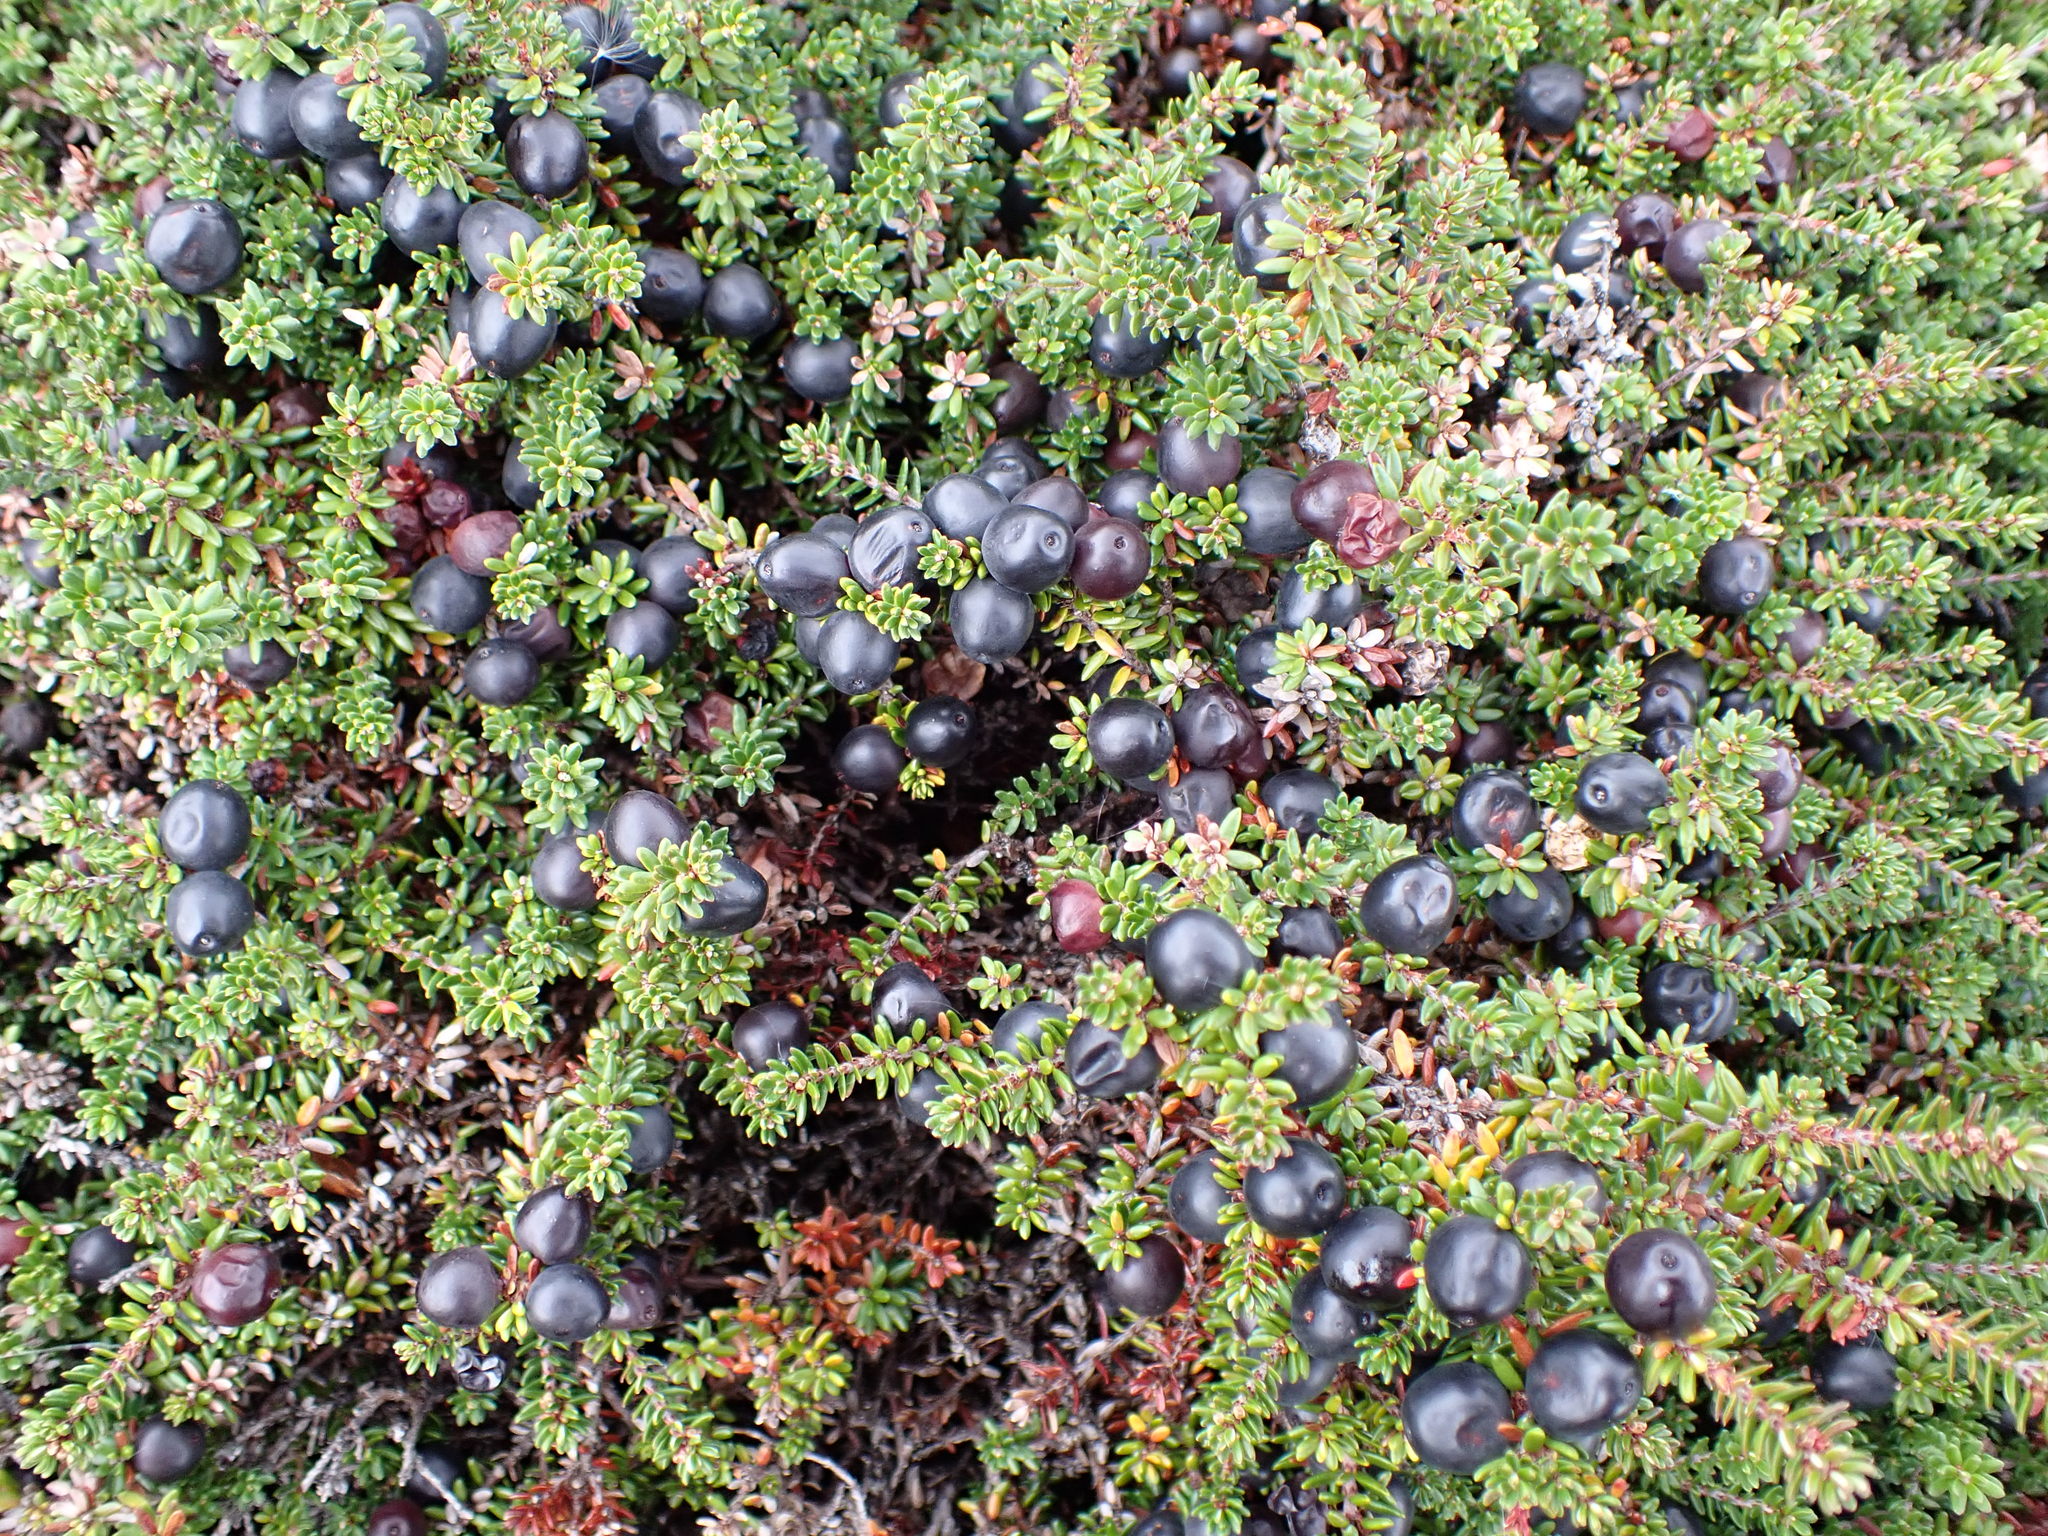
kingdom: Plantae
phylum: Tracheophyta
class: Magnoliopsida
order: Ericales
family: Ericaceae
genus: Empetrum
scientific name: Empetrum nigrum
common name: Black crowberry
